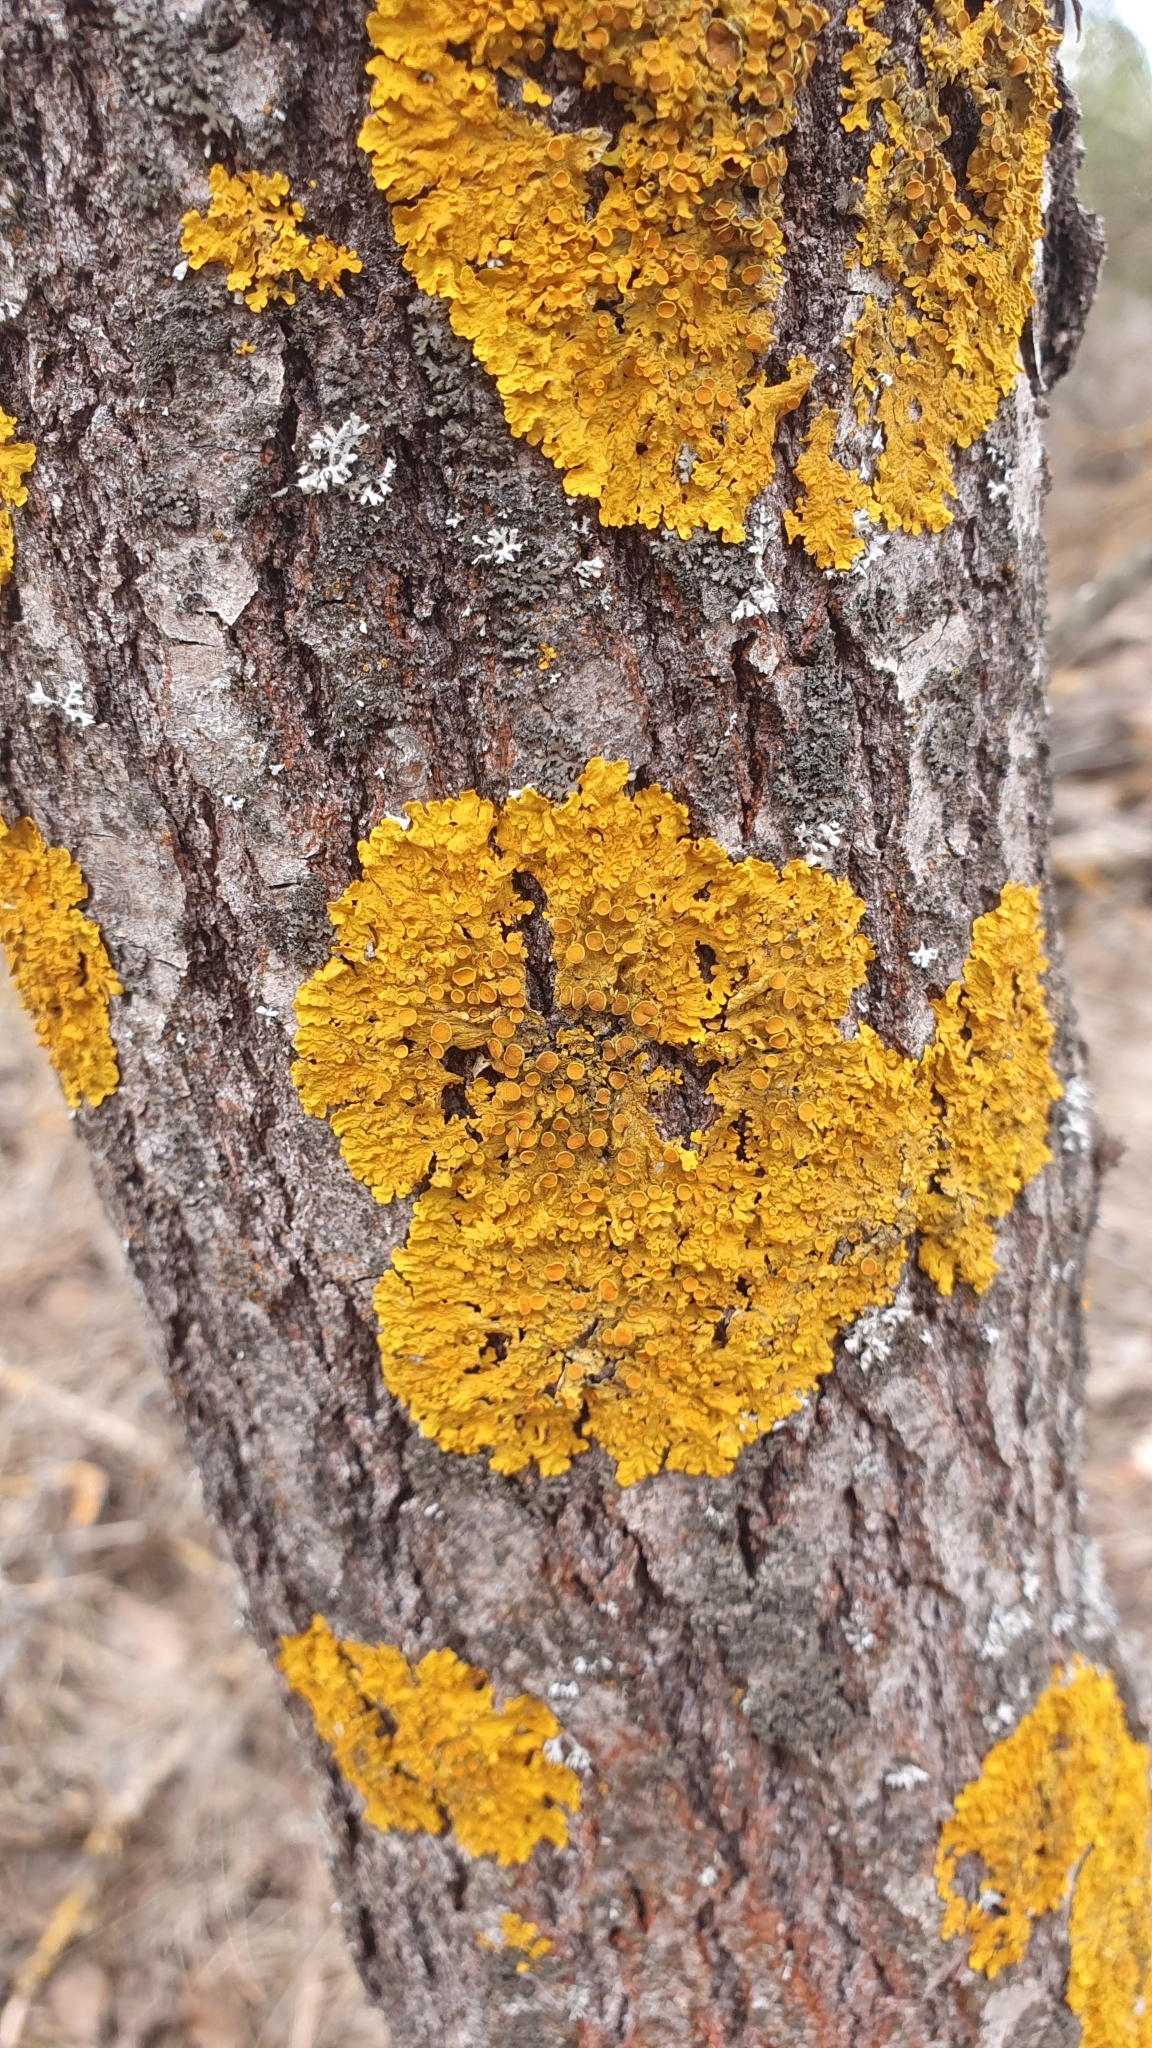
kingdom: Fungi
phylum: Ascomycota
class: Lecanoromycetes
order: Teloschistales
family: Teloschistaceae
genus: Xanthoria
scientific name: Xanthoria parietina
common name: Common orange lichen
